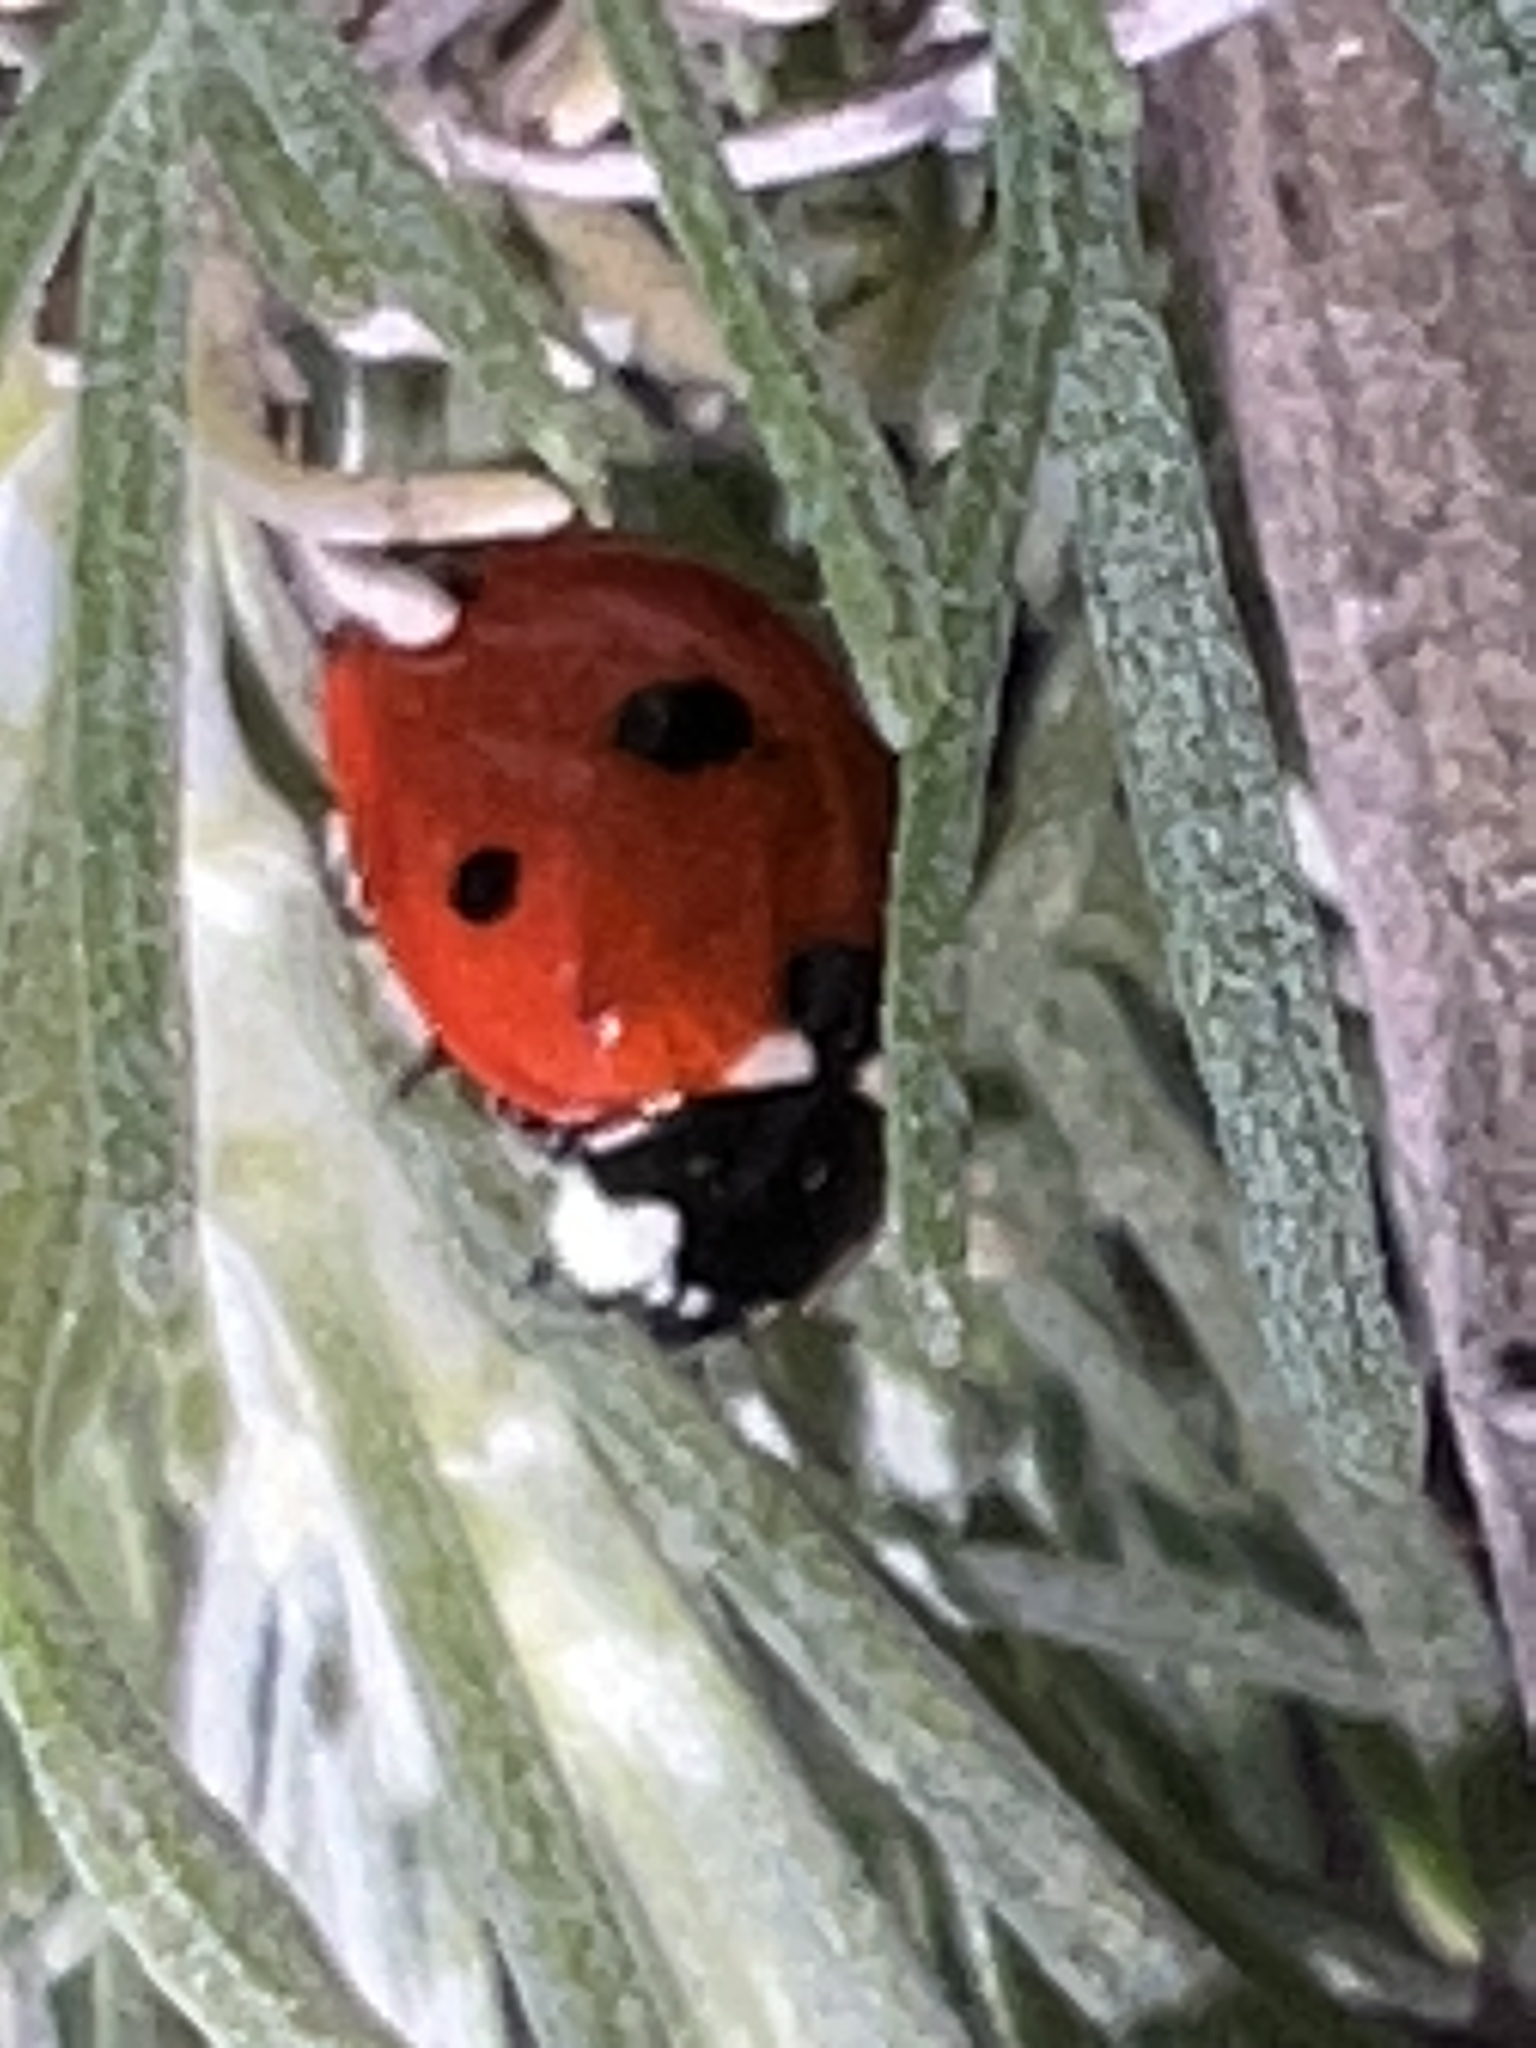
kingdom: Animalia
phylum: Arthropoda
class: Insecta
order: Coleoptera
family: Coccinellidae
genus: Coccinella
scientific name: Coccinella septempunctata
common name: Sevenspotted lady beetle
